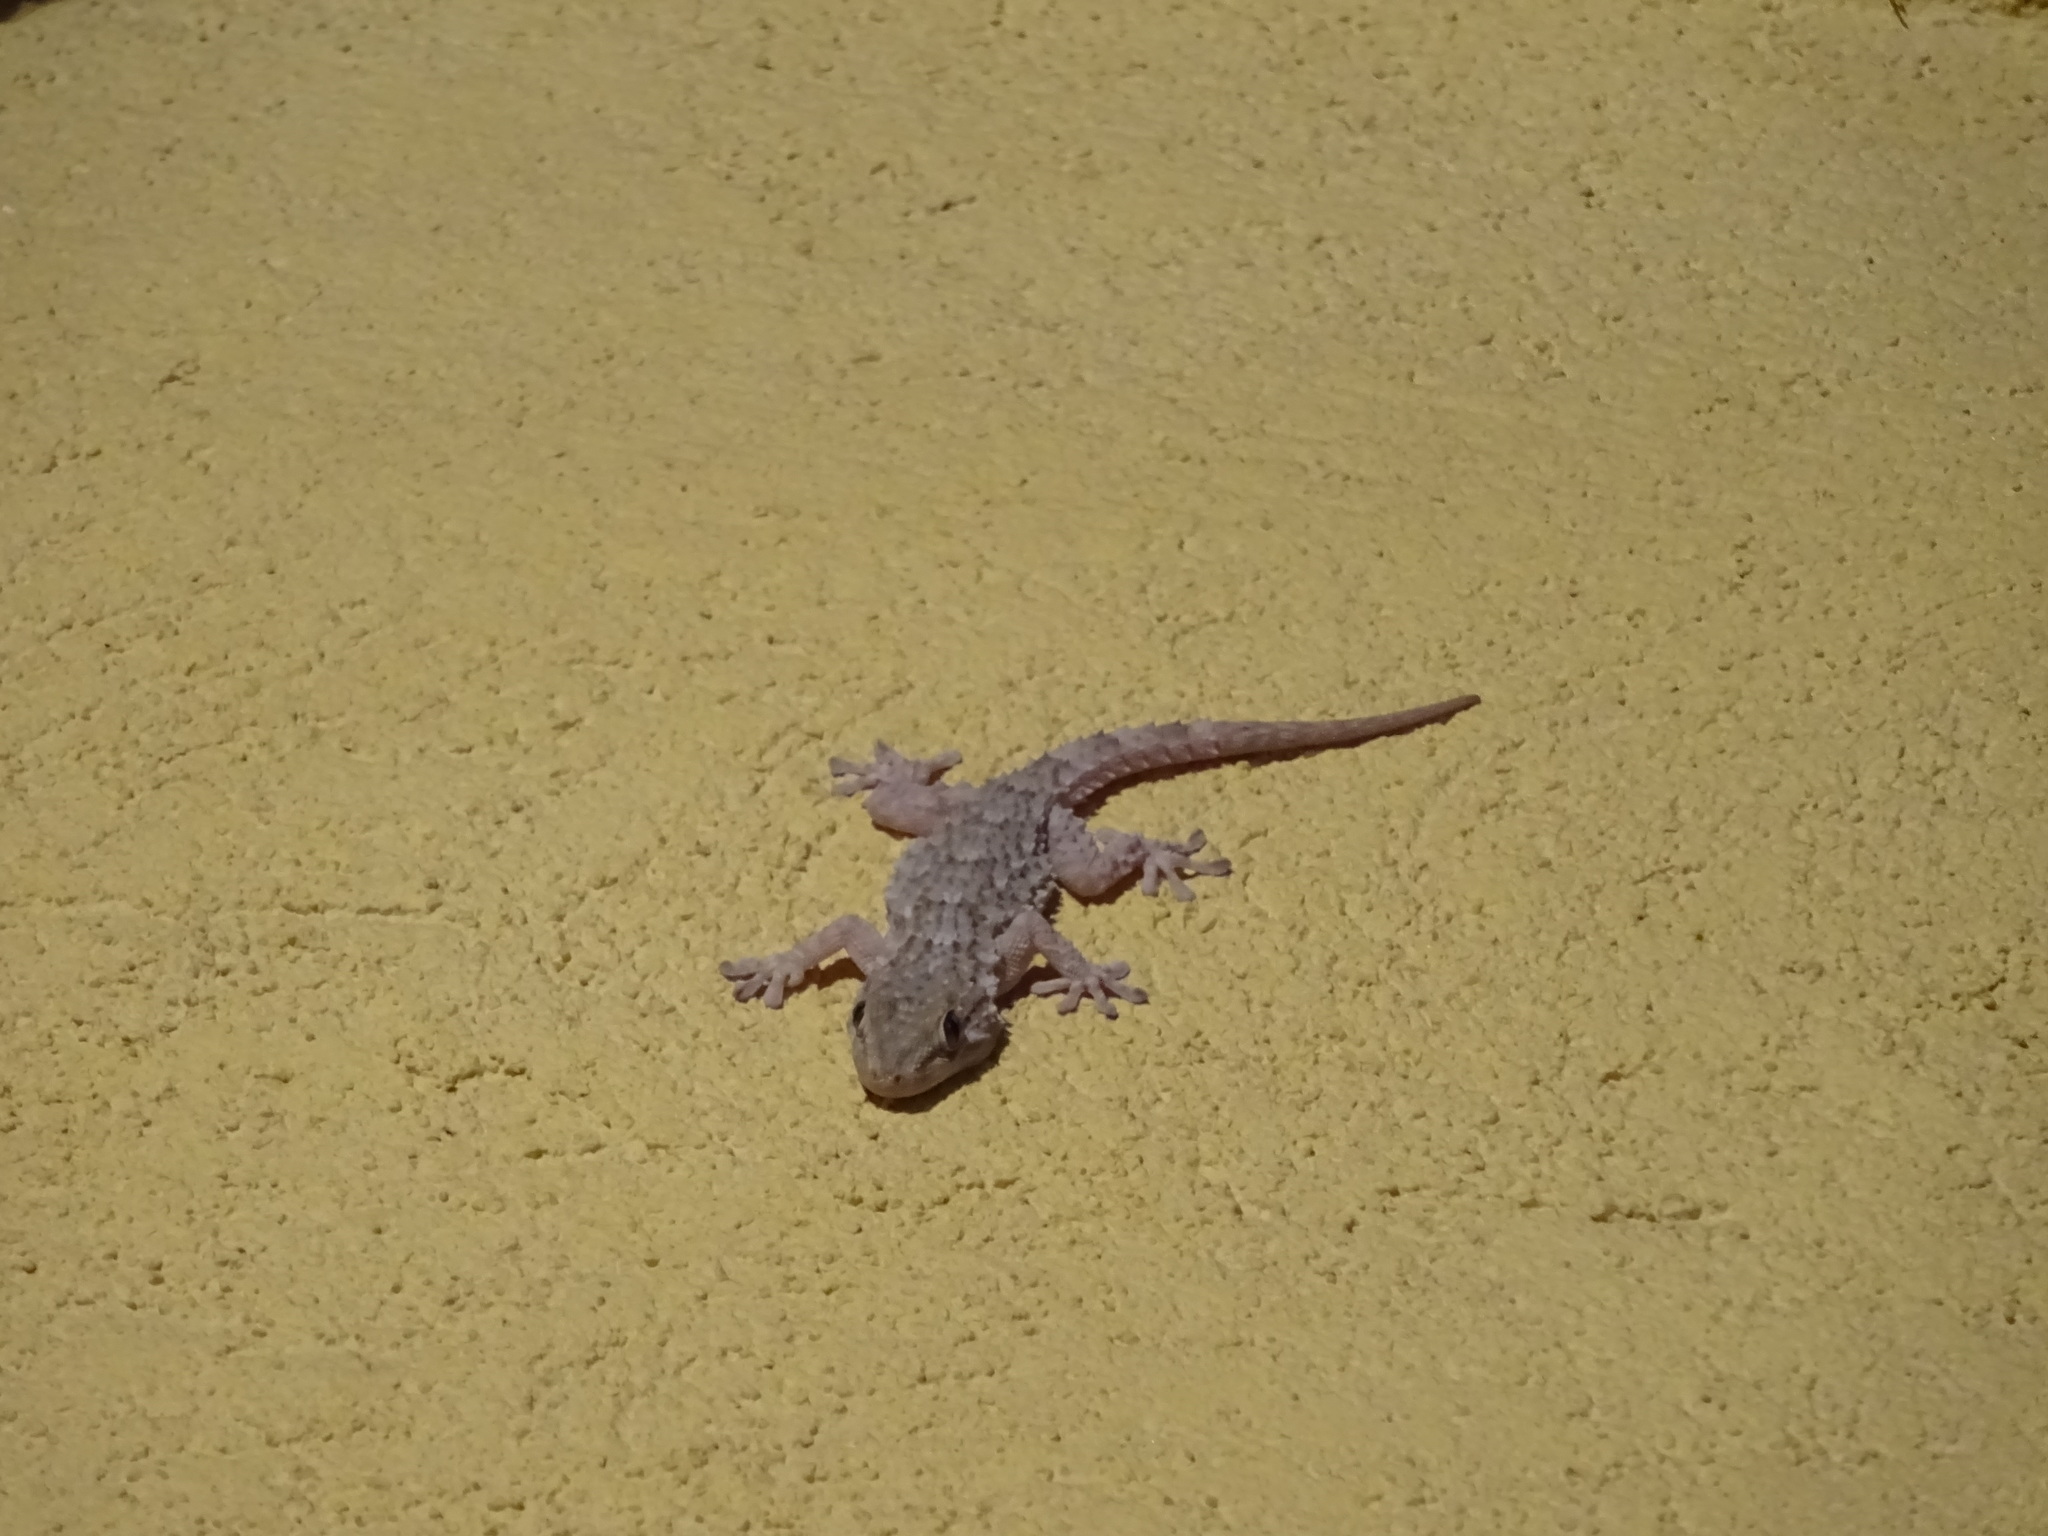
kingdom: Animalia
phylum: Chordata
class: Squamata
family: Phyllodactylidae
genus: Tarentola
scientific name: Tarentola mauritanica
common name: Moorish gecko
